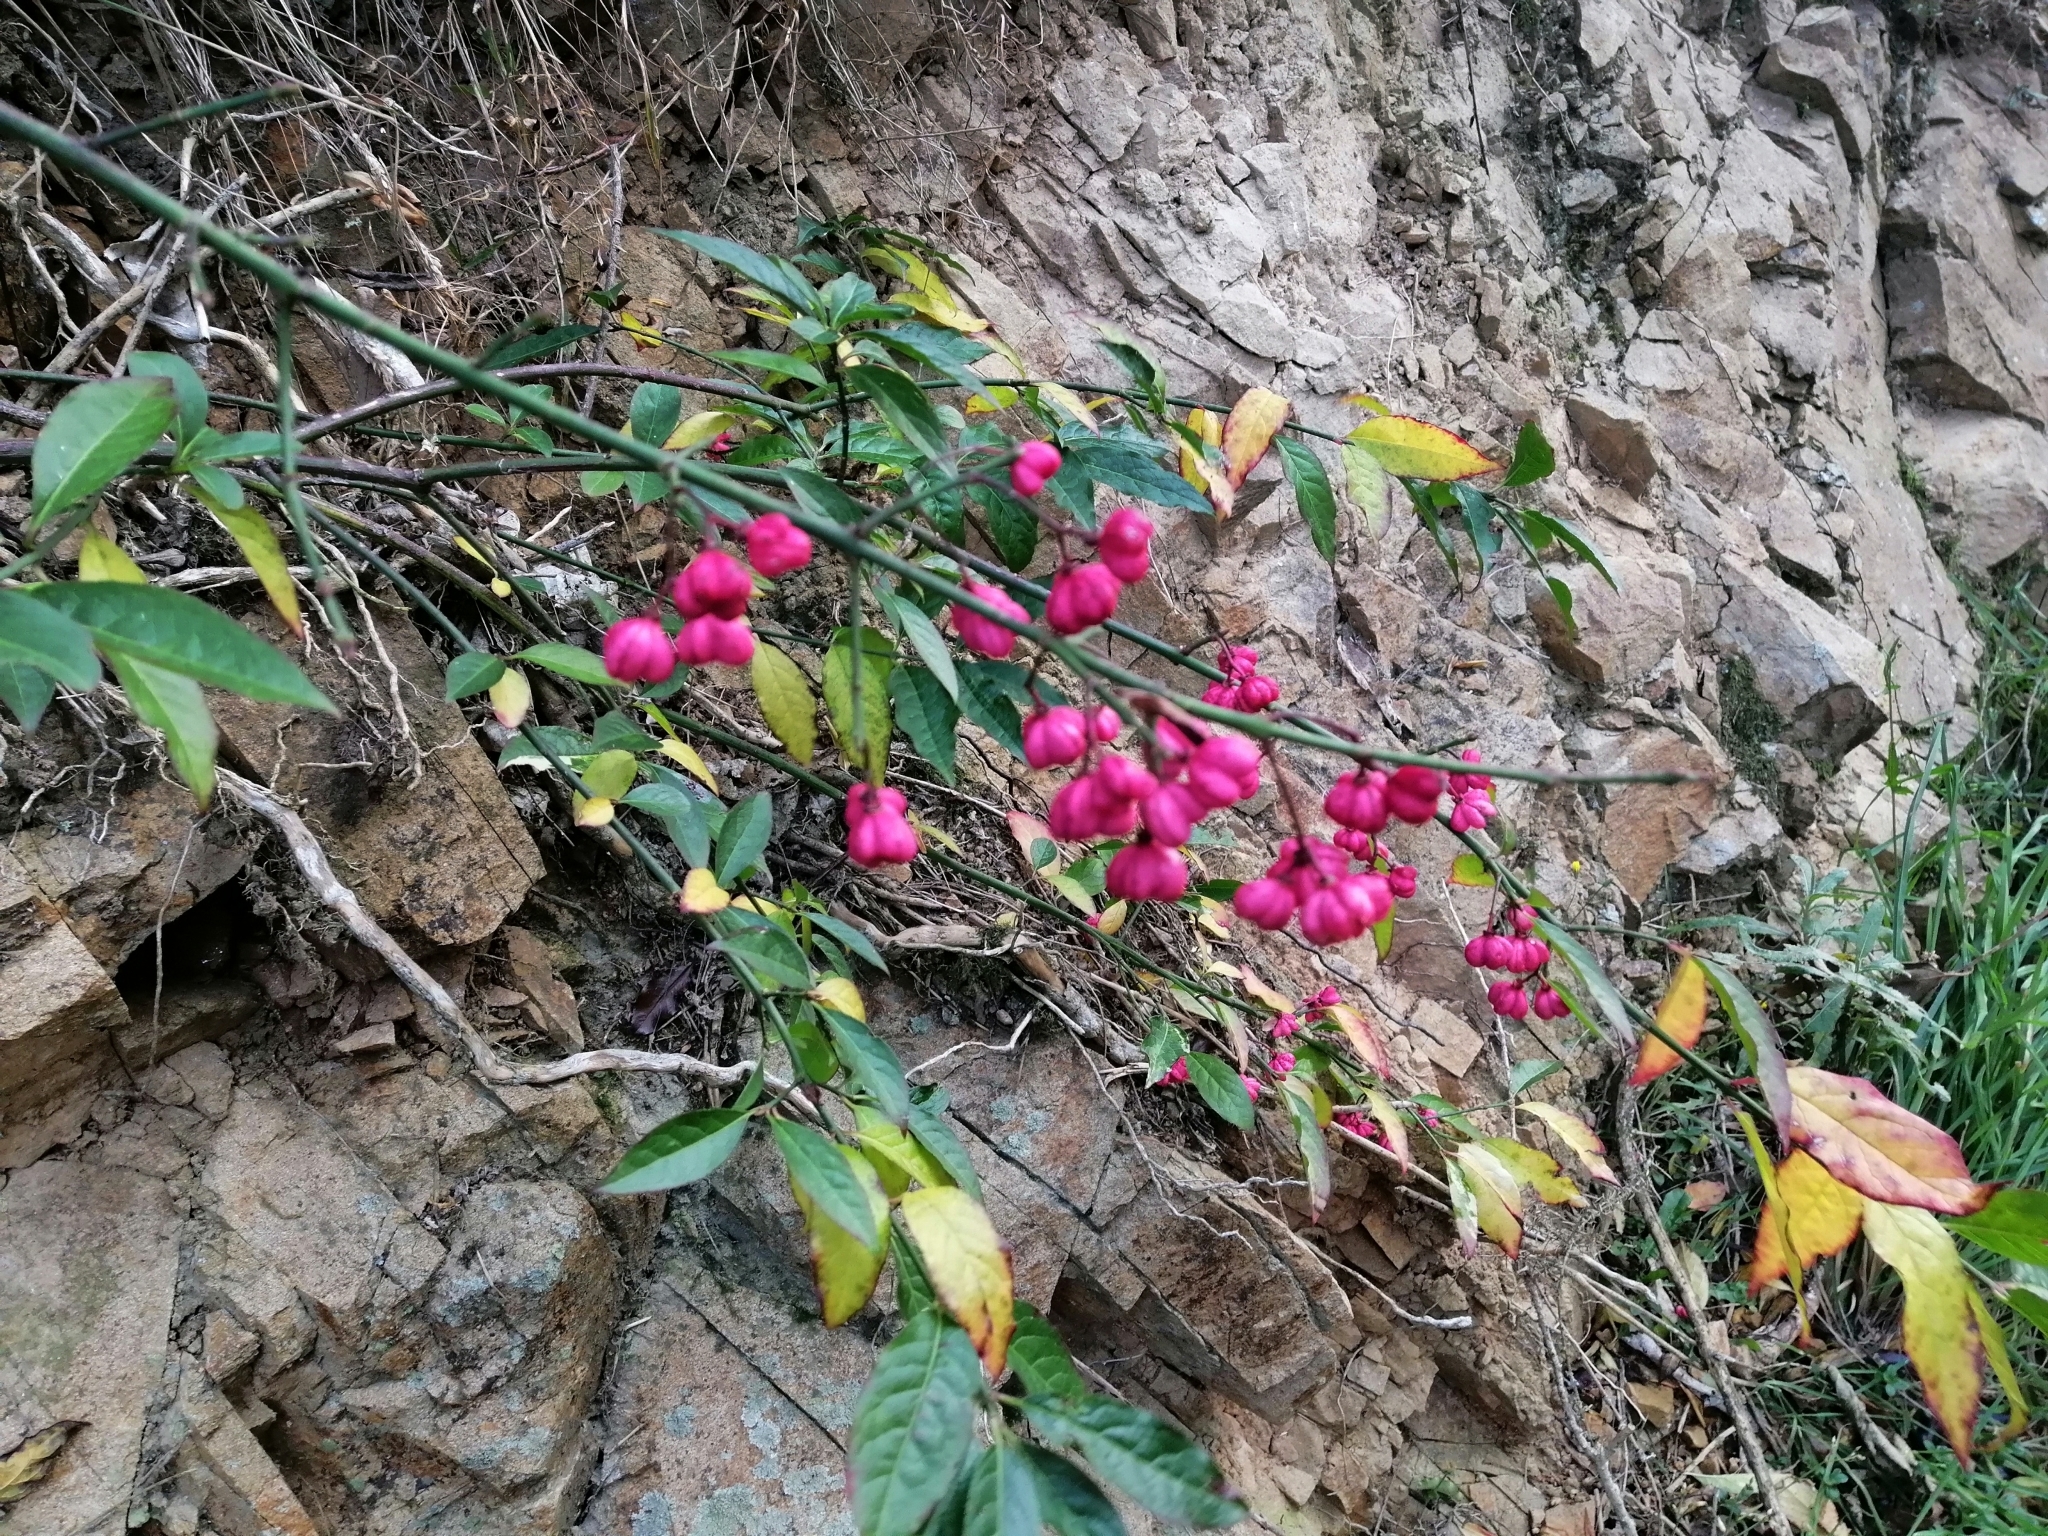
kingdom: Plantae
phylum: Tracheophyta
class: Magnoliopsida
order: Celastrales
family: Celastraceae
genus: Euonymus
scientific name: Euonymus europaeus
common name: Spindle
